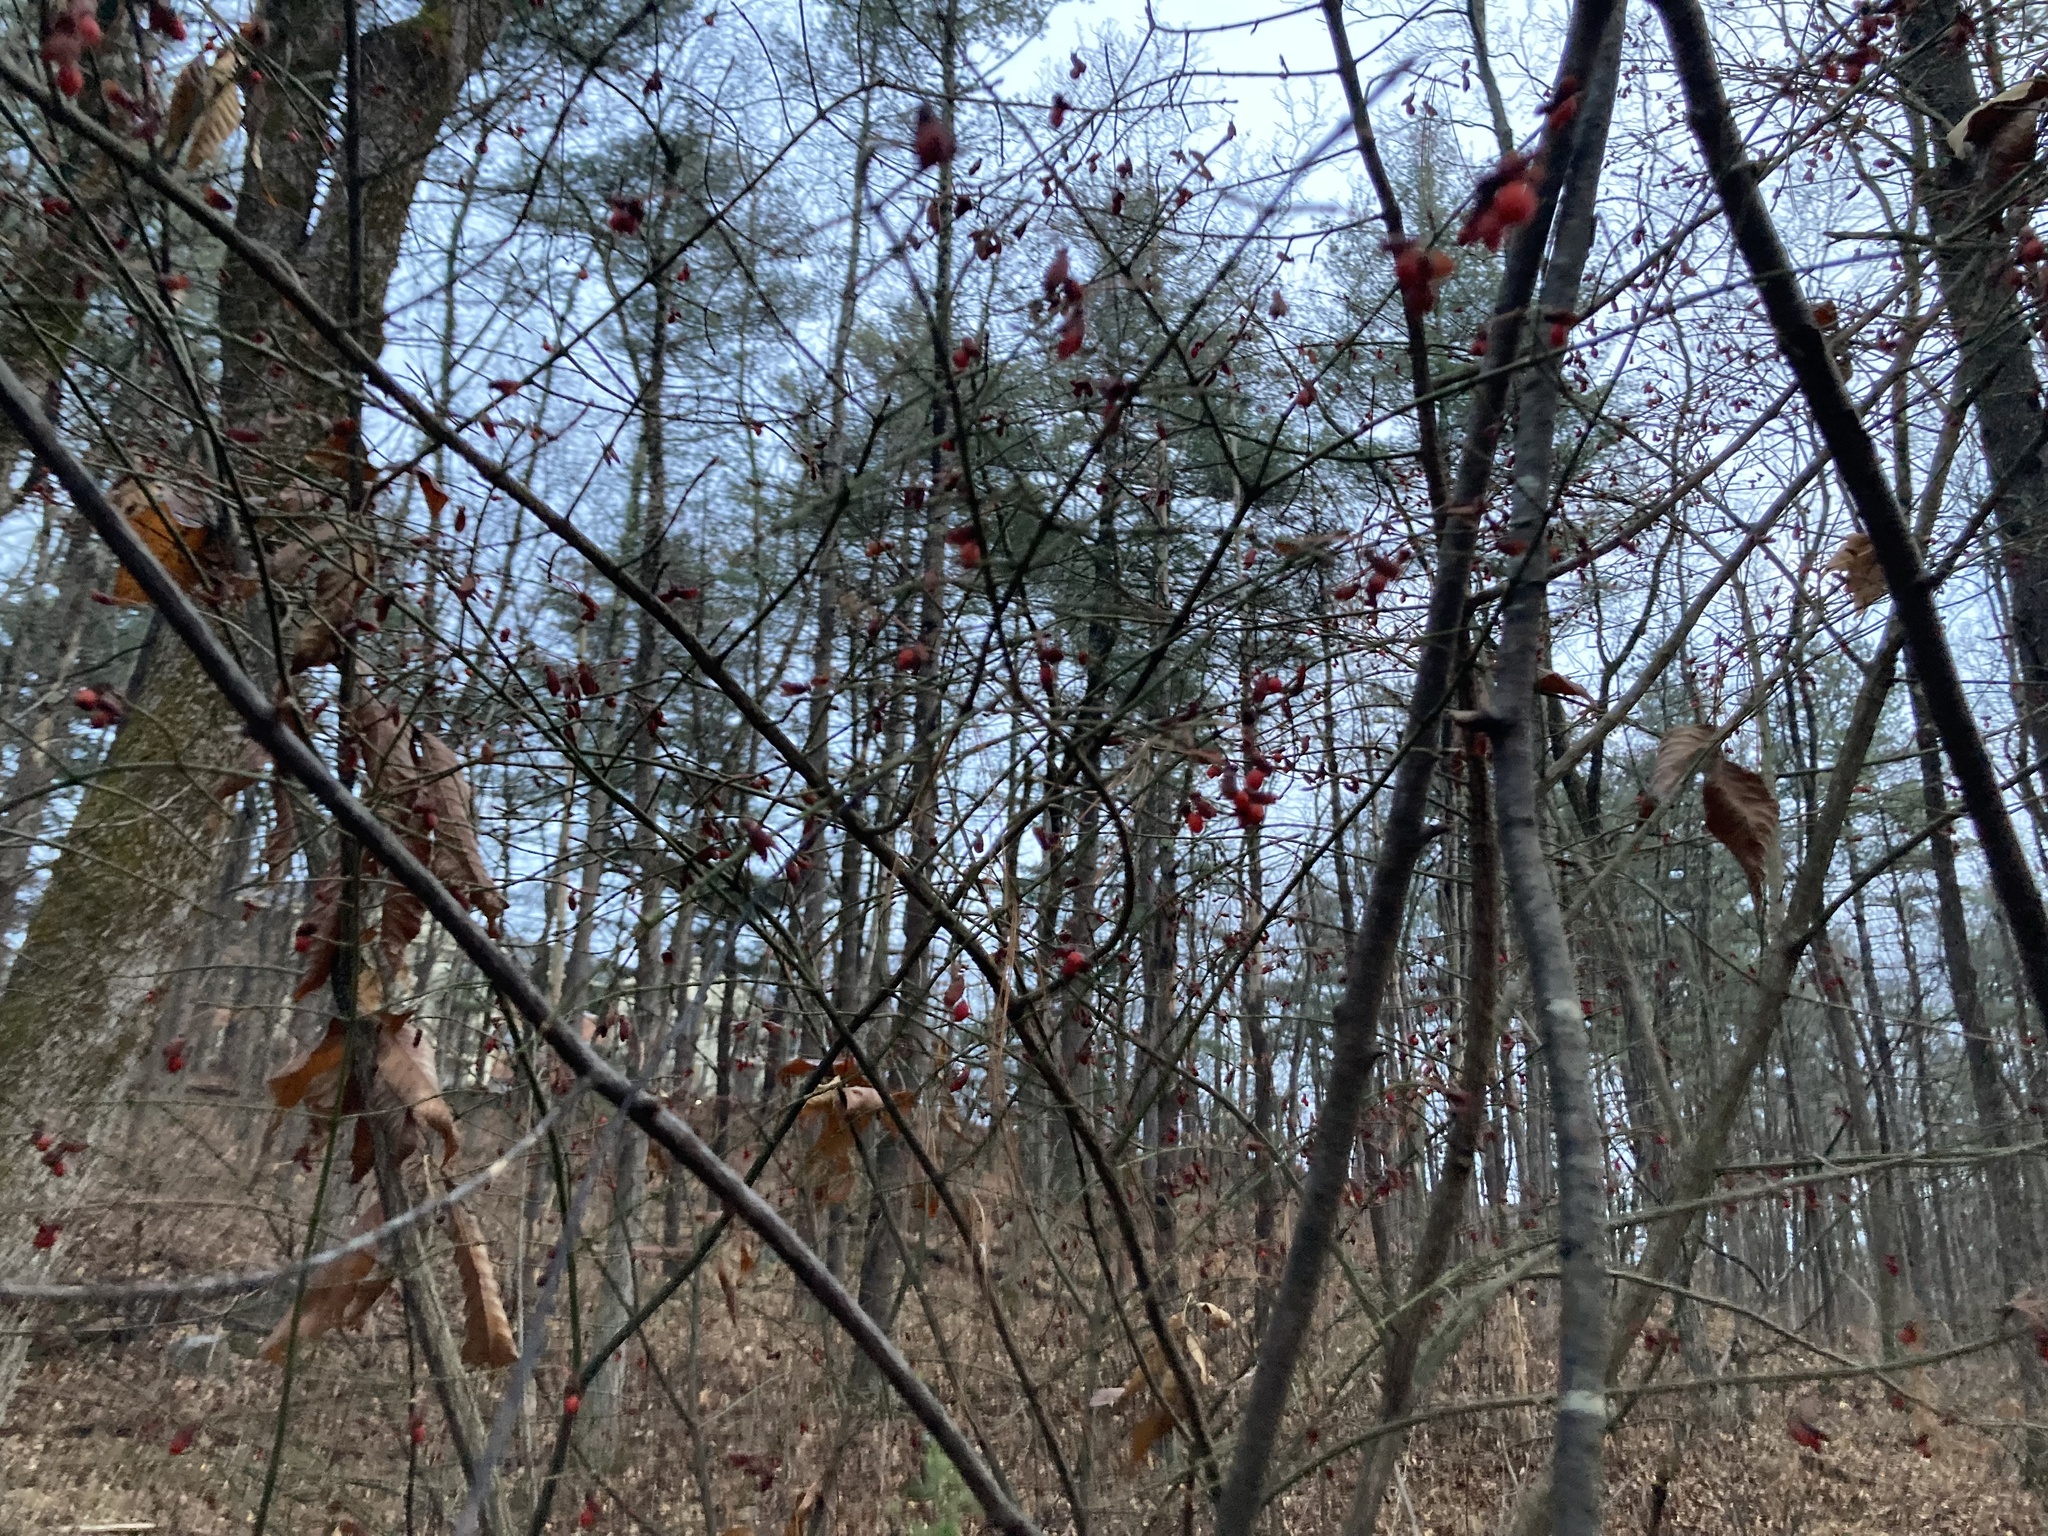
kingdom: Plantae
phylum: Tracheophyta
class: Magnoliopsida
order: Celastrales
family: Celastraceae
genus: Euonymus
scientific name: Euonymus alatus
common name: Winged euonymus
